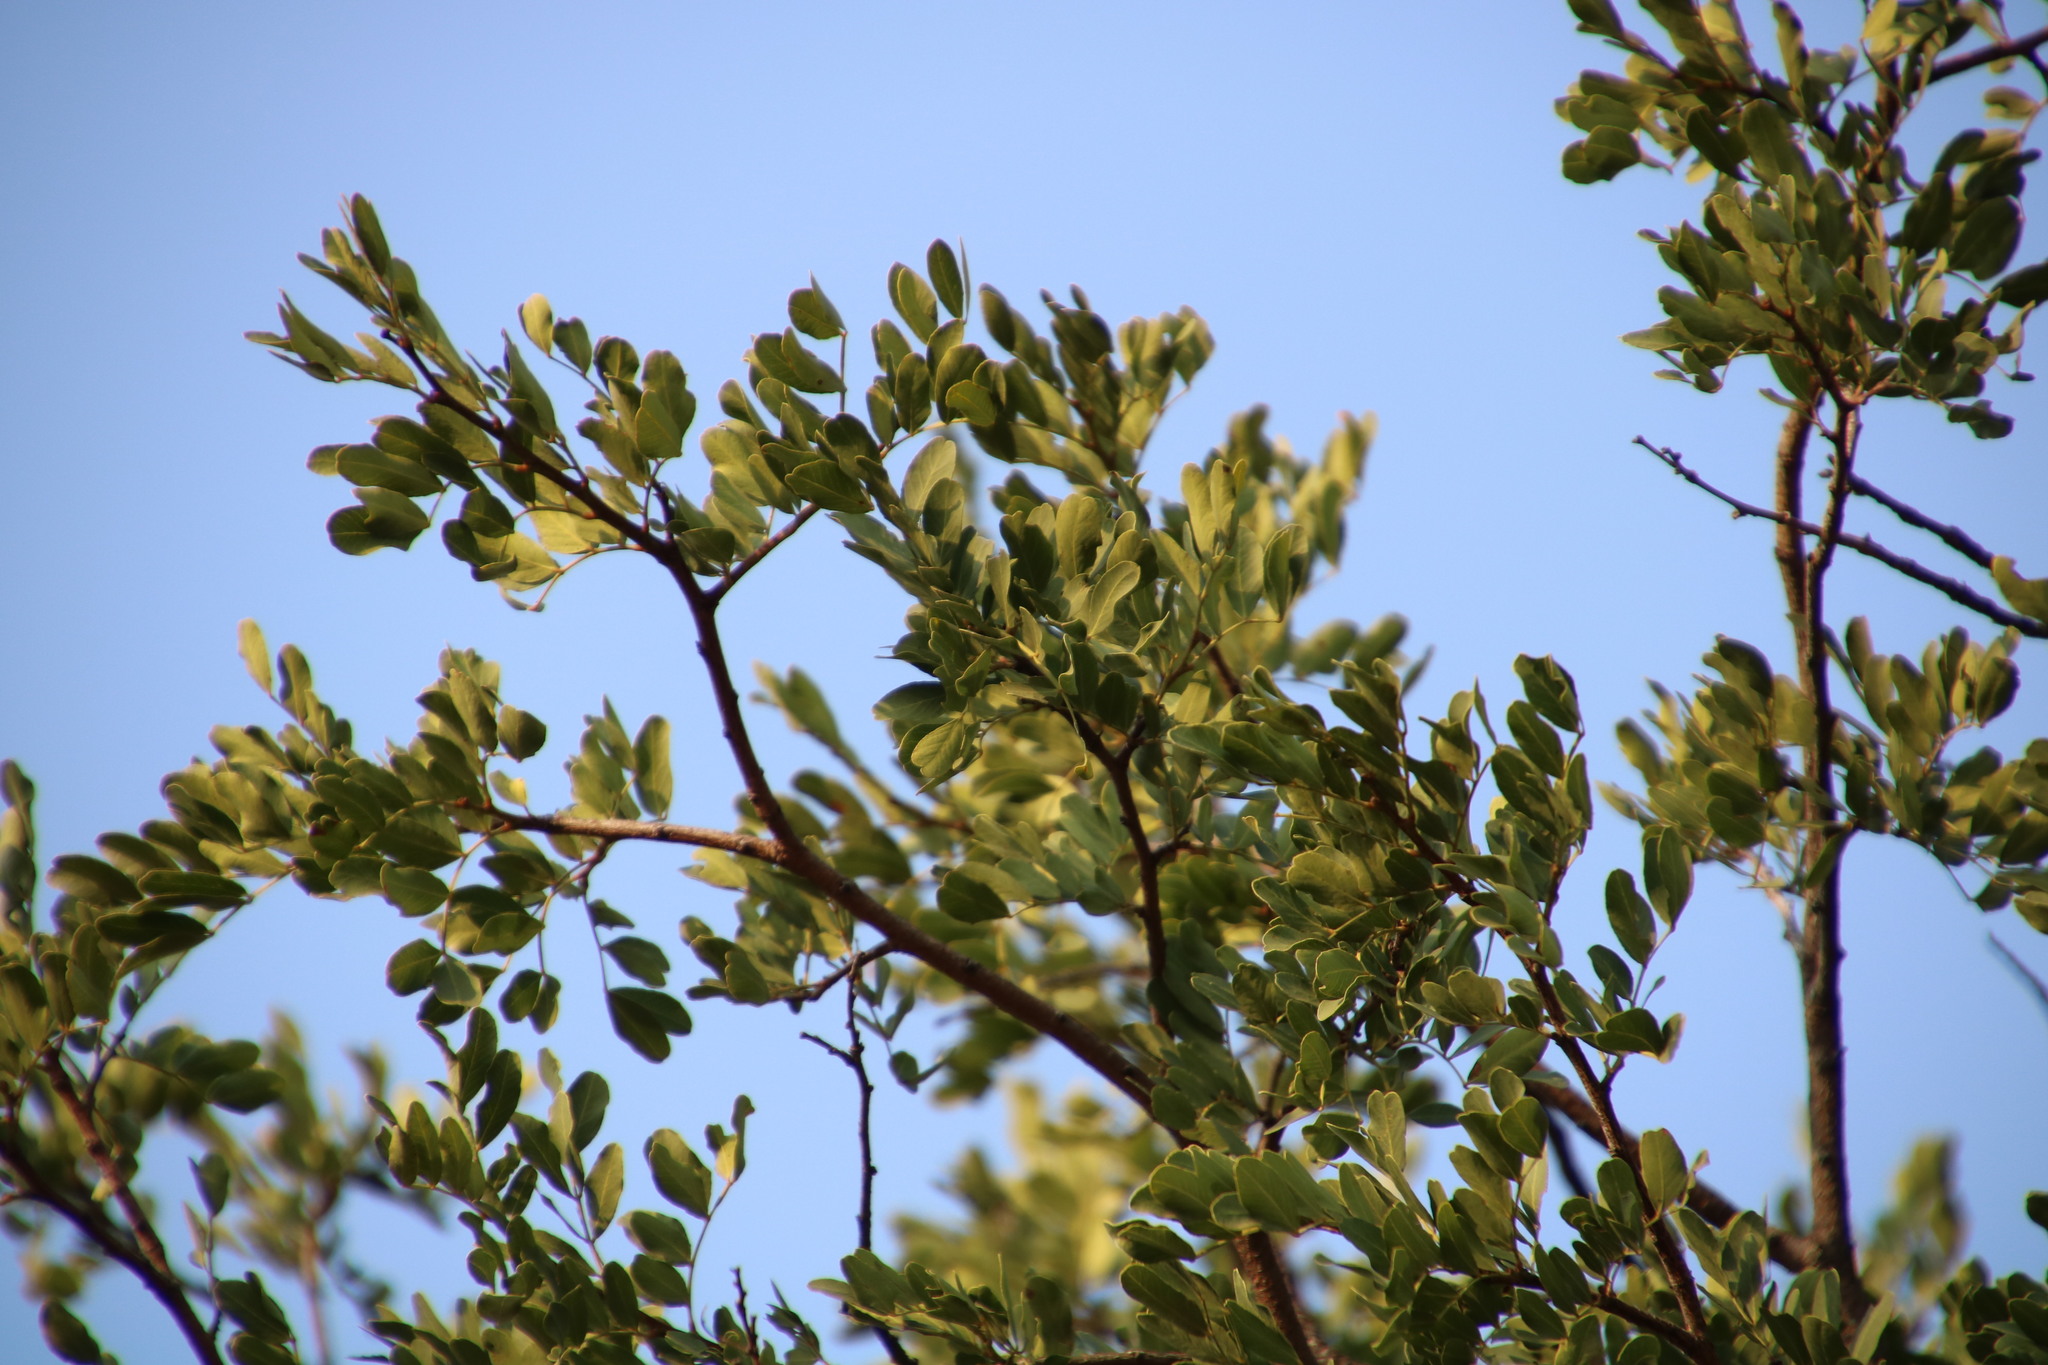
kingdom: Plantae
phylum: Tracheophyta
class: Magnoliopsida
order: Fabales
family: Fabaceae
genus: Schotia
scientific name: Schotia brachypetala
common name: Weeping boer-bean
